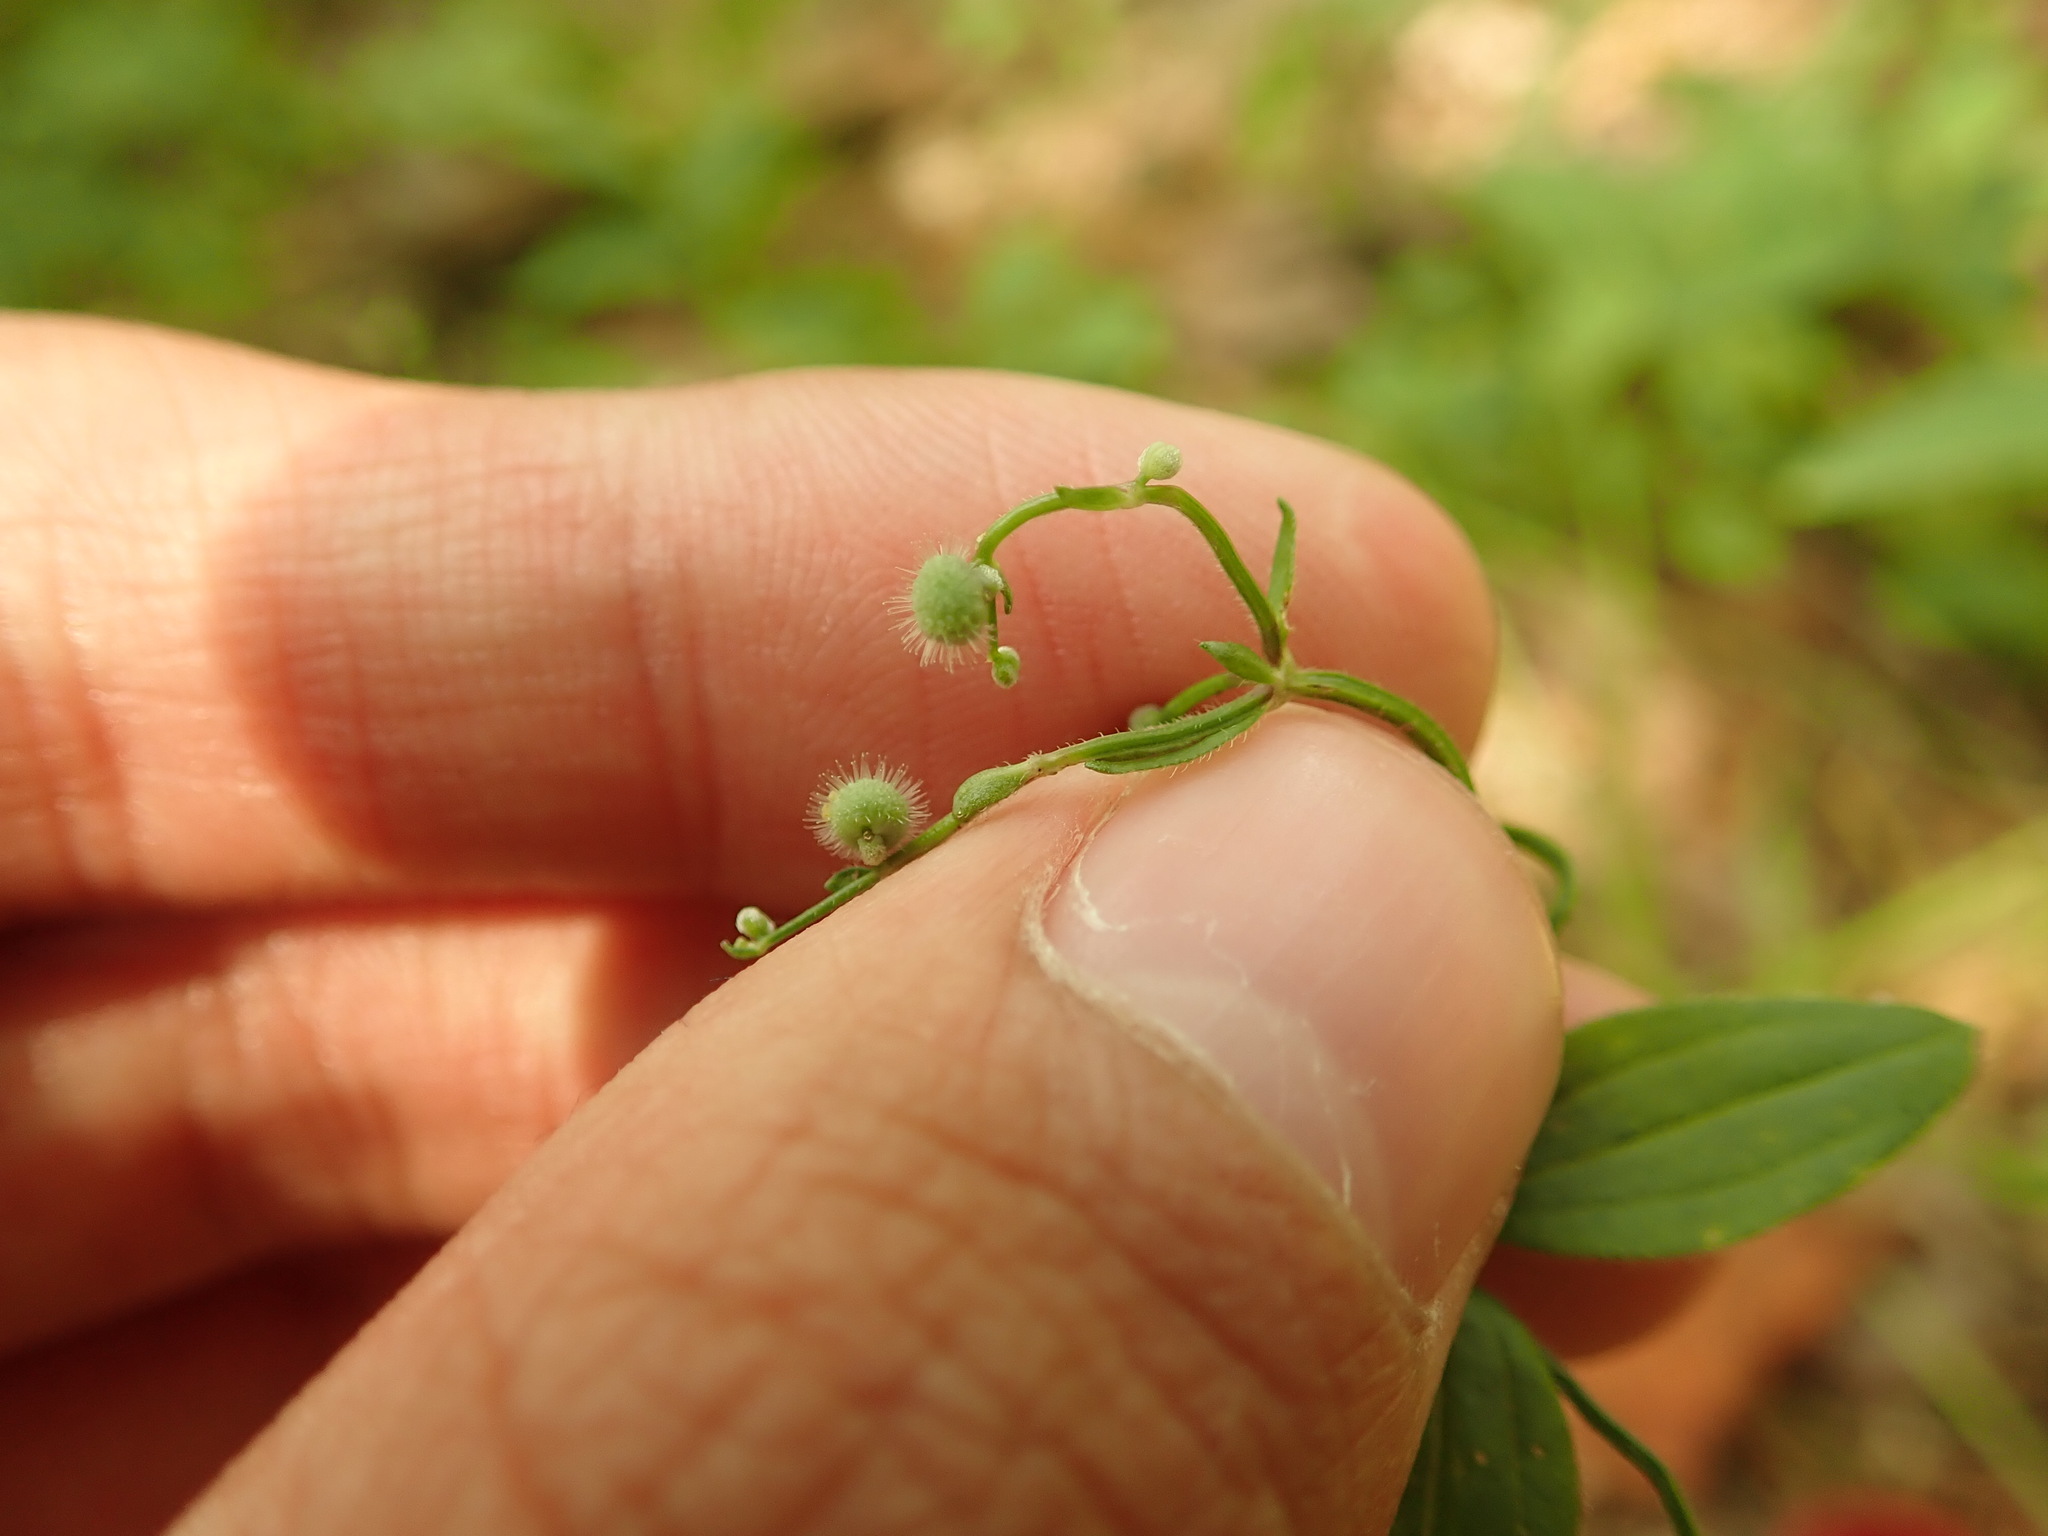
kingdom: Plantae
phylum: Tracheophyta
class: Magnoliopsida
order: Gentianales
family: Rubiaceae
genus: Galium
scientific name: Galium circaezans
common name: Forest bedstraw
